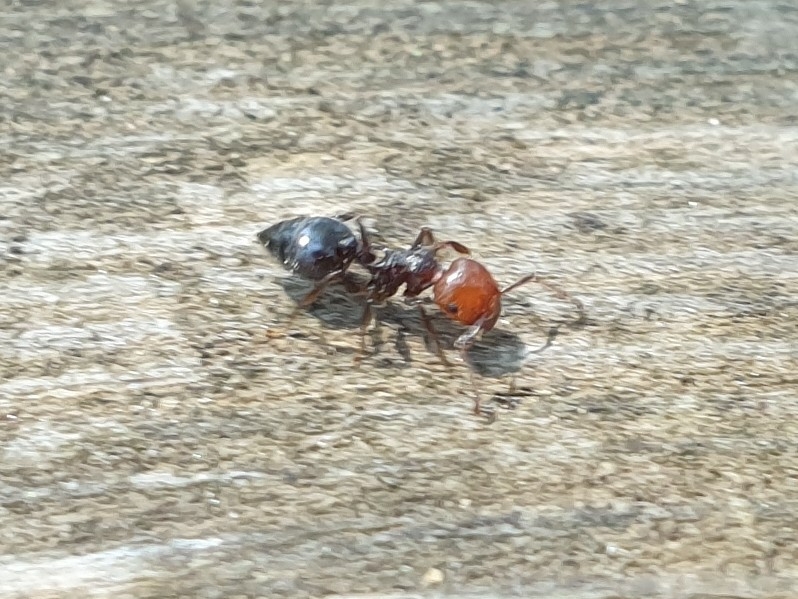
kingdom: Animalia
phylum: Arthropoda
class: Insecta
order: Hymenoptera
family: Formicidae
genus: Crematogaster
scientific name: Crematogaster scutellaris
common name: Fourmi du liège
